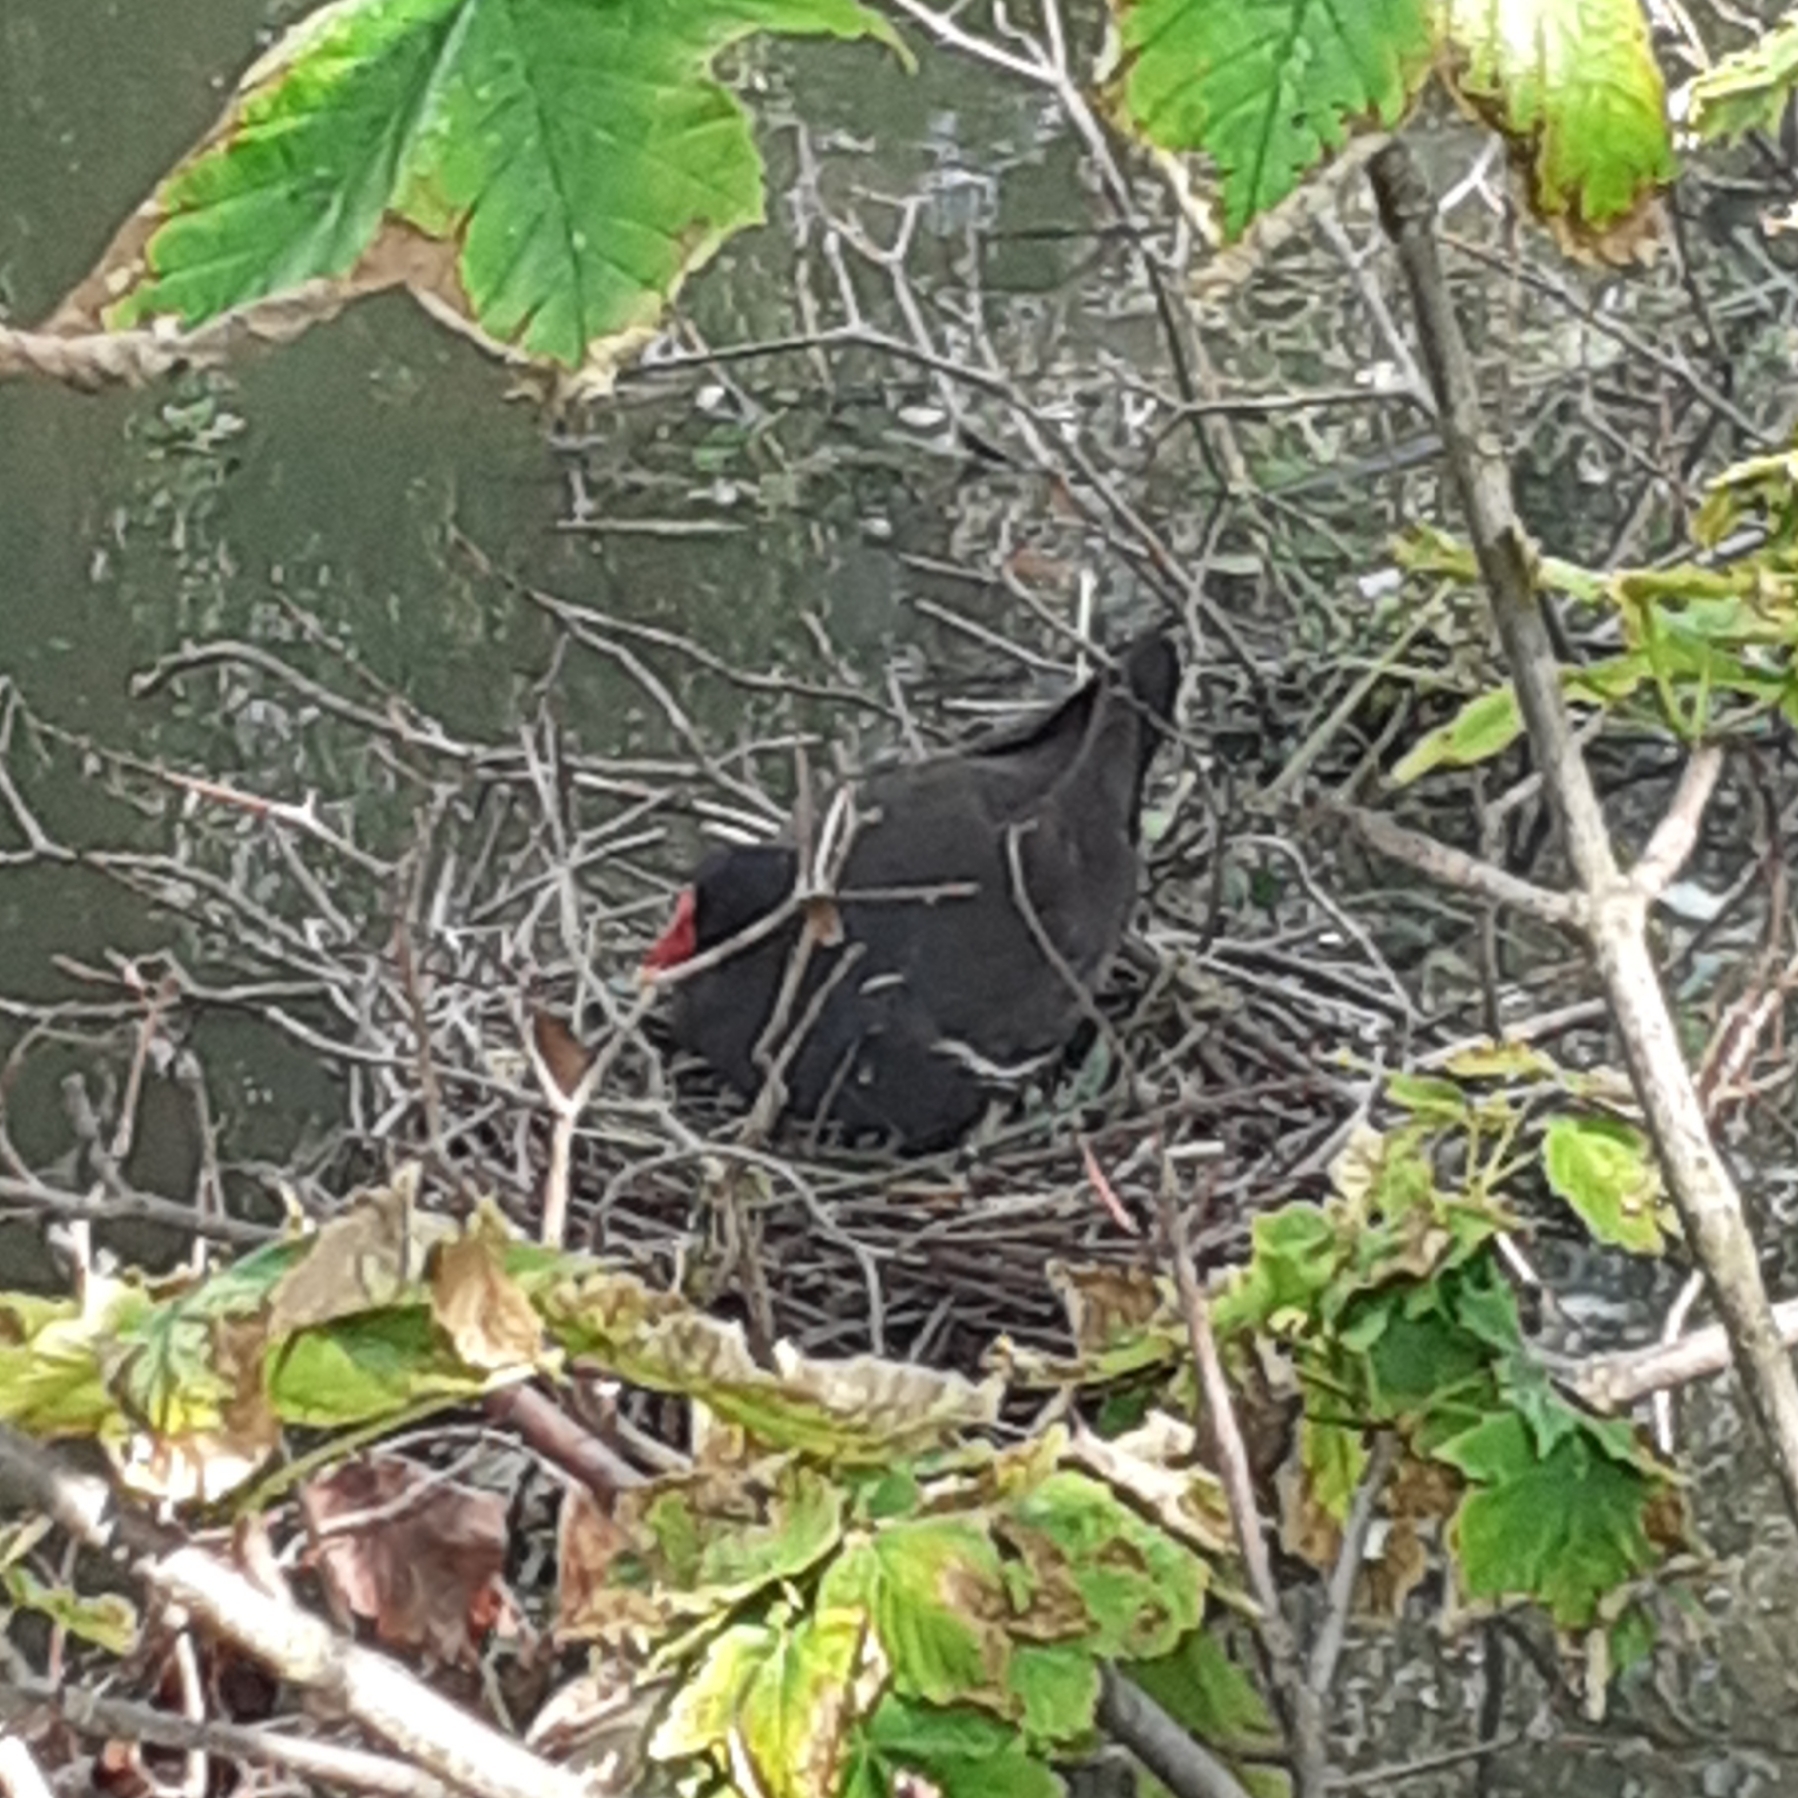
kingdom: Animalia
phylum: Chordata
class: Aves
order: Gruiformes
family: Rallidae
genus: Gallinula
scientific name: Gallinula chloropus
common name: Common moorhen
